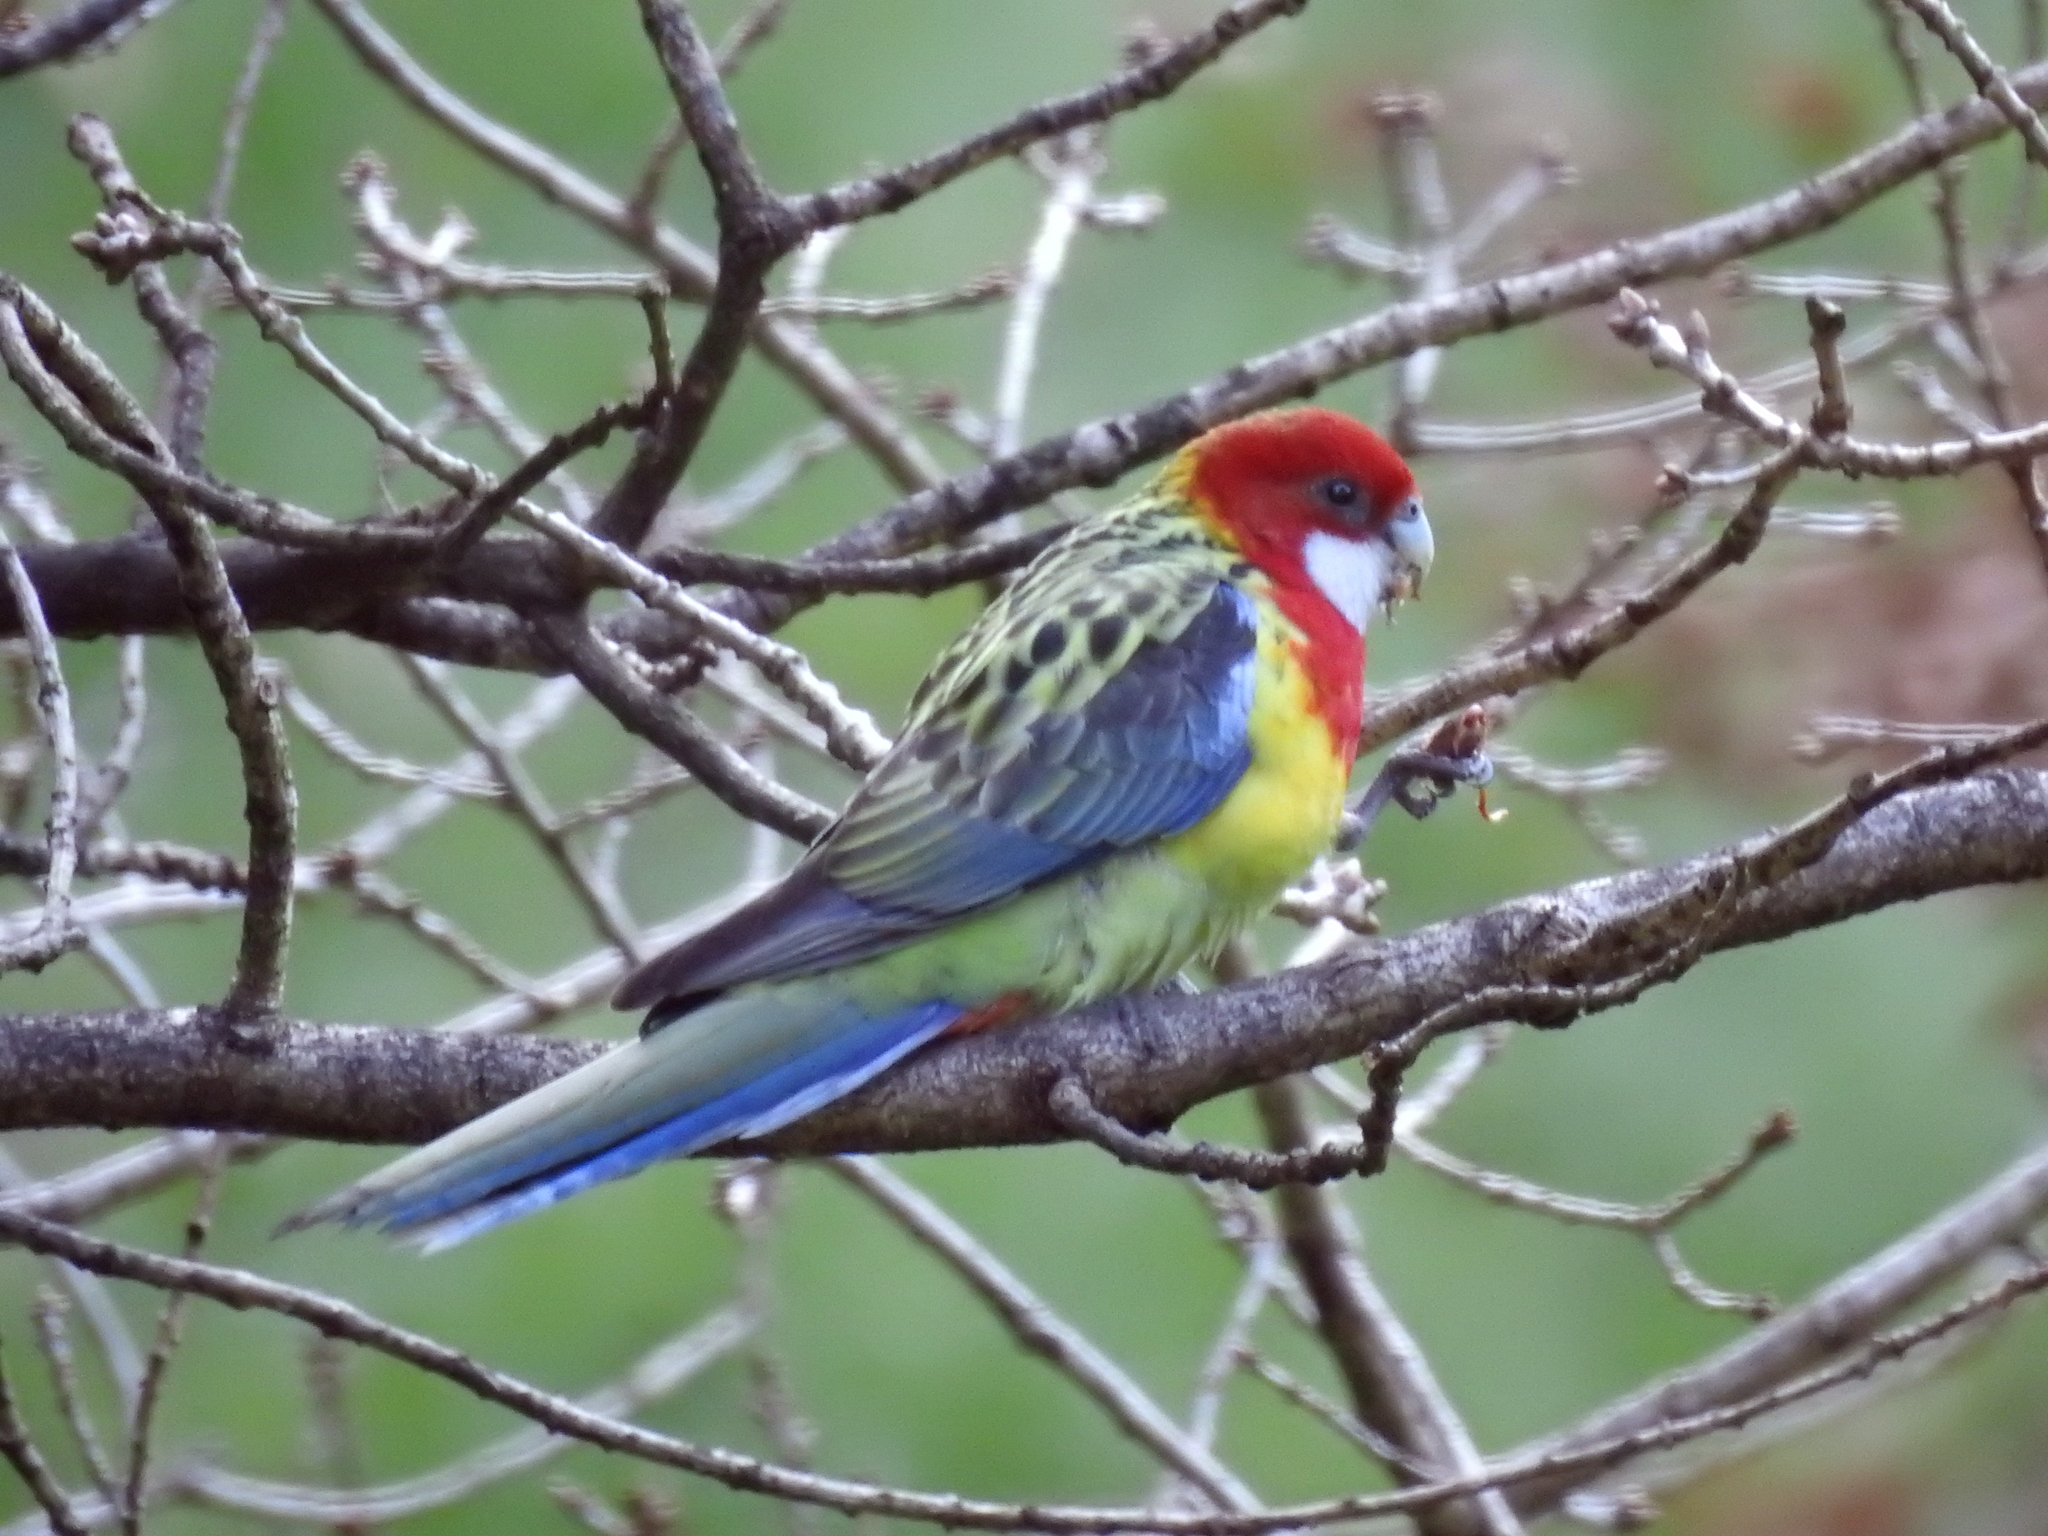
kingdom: Animalia
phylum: Chordata
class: Aves
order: Psittaciformes
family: Psittacidae
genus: Platycercus
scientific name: Platycercus eximius
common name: Eastern rosella
